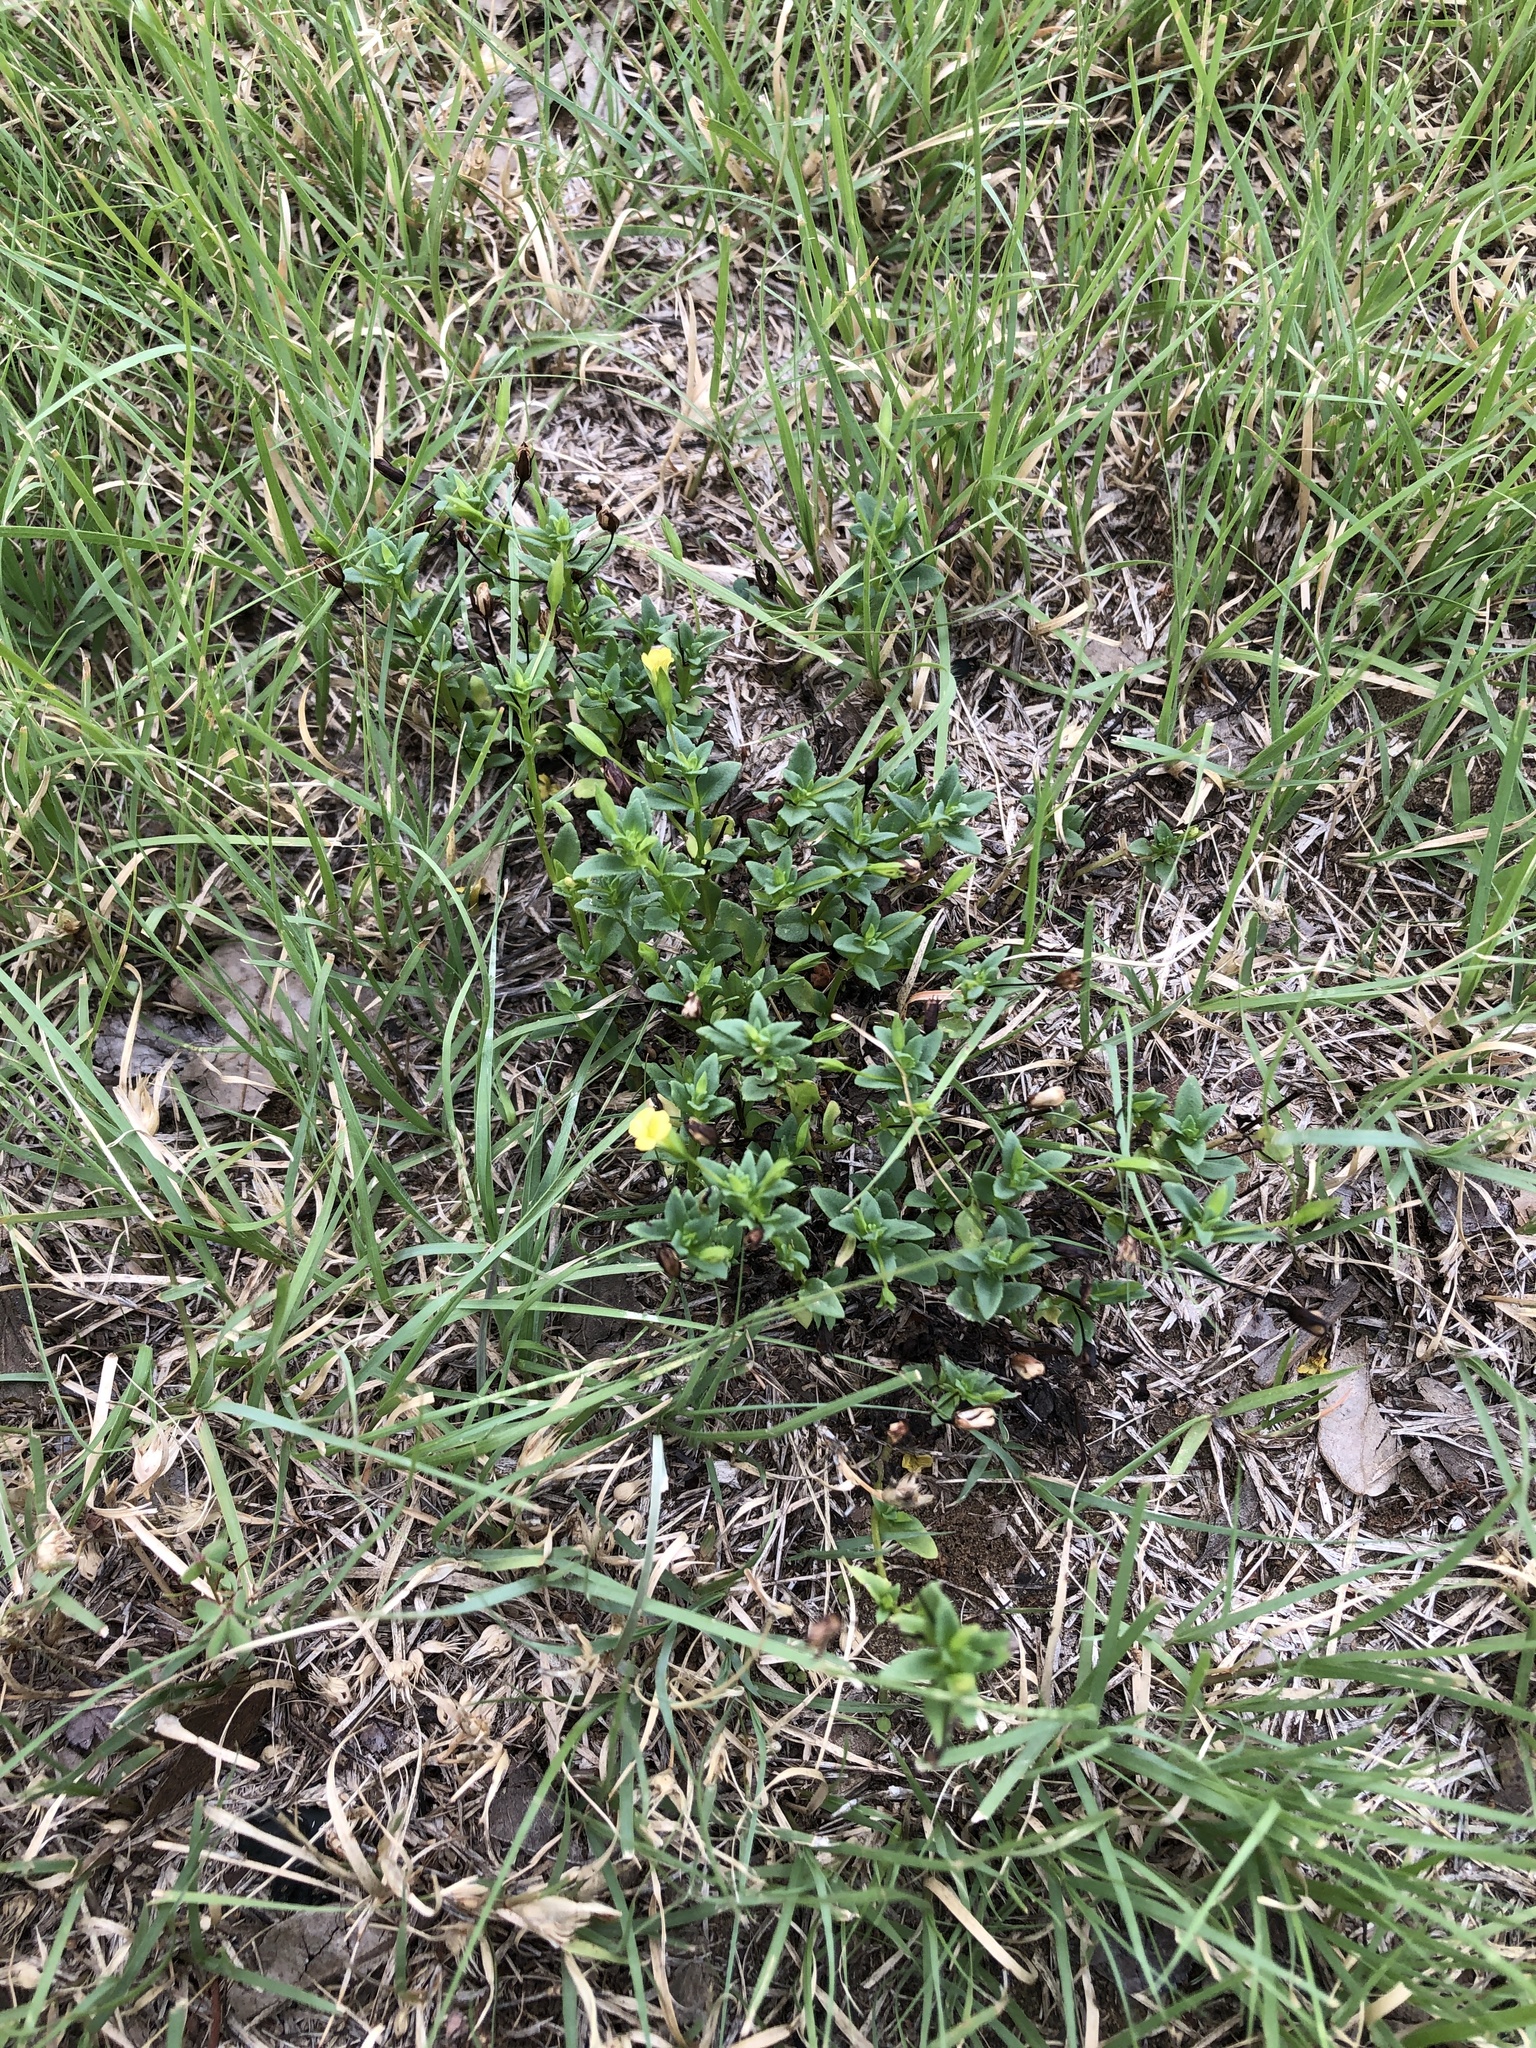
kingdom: Plantae
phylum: Tracheophyta
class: Magnoliopsida
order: Lamiales
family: Plantaginaceae
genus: Mecardonia
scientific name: Mecardonia procumbens
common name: Baby jump-up
